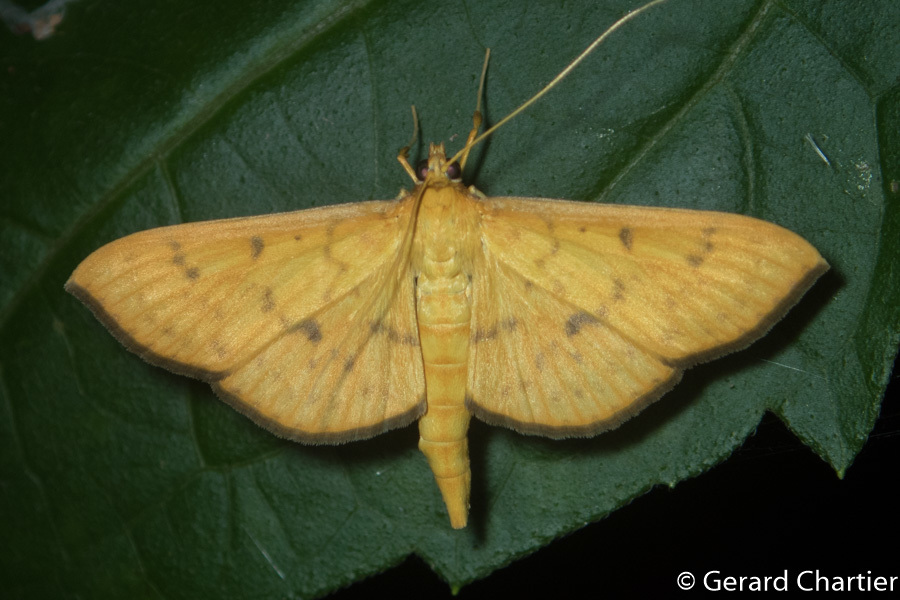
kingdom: Animalia
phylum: Arthropoda
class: Insecta
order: Lepidoptera
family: Crambidae
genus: Caldubotys
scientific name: Caldubotys caldusalis
